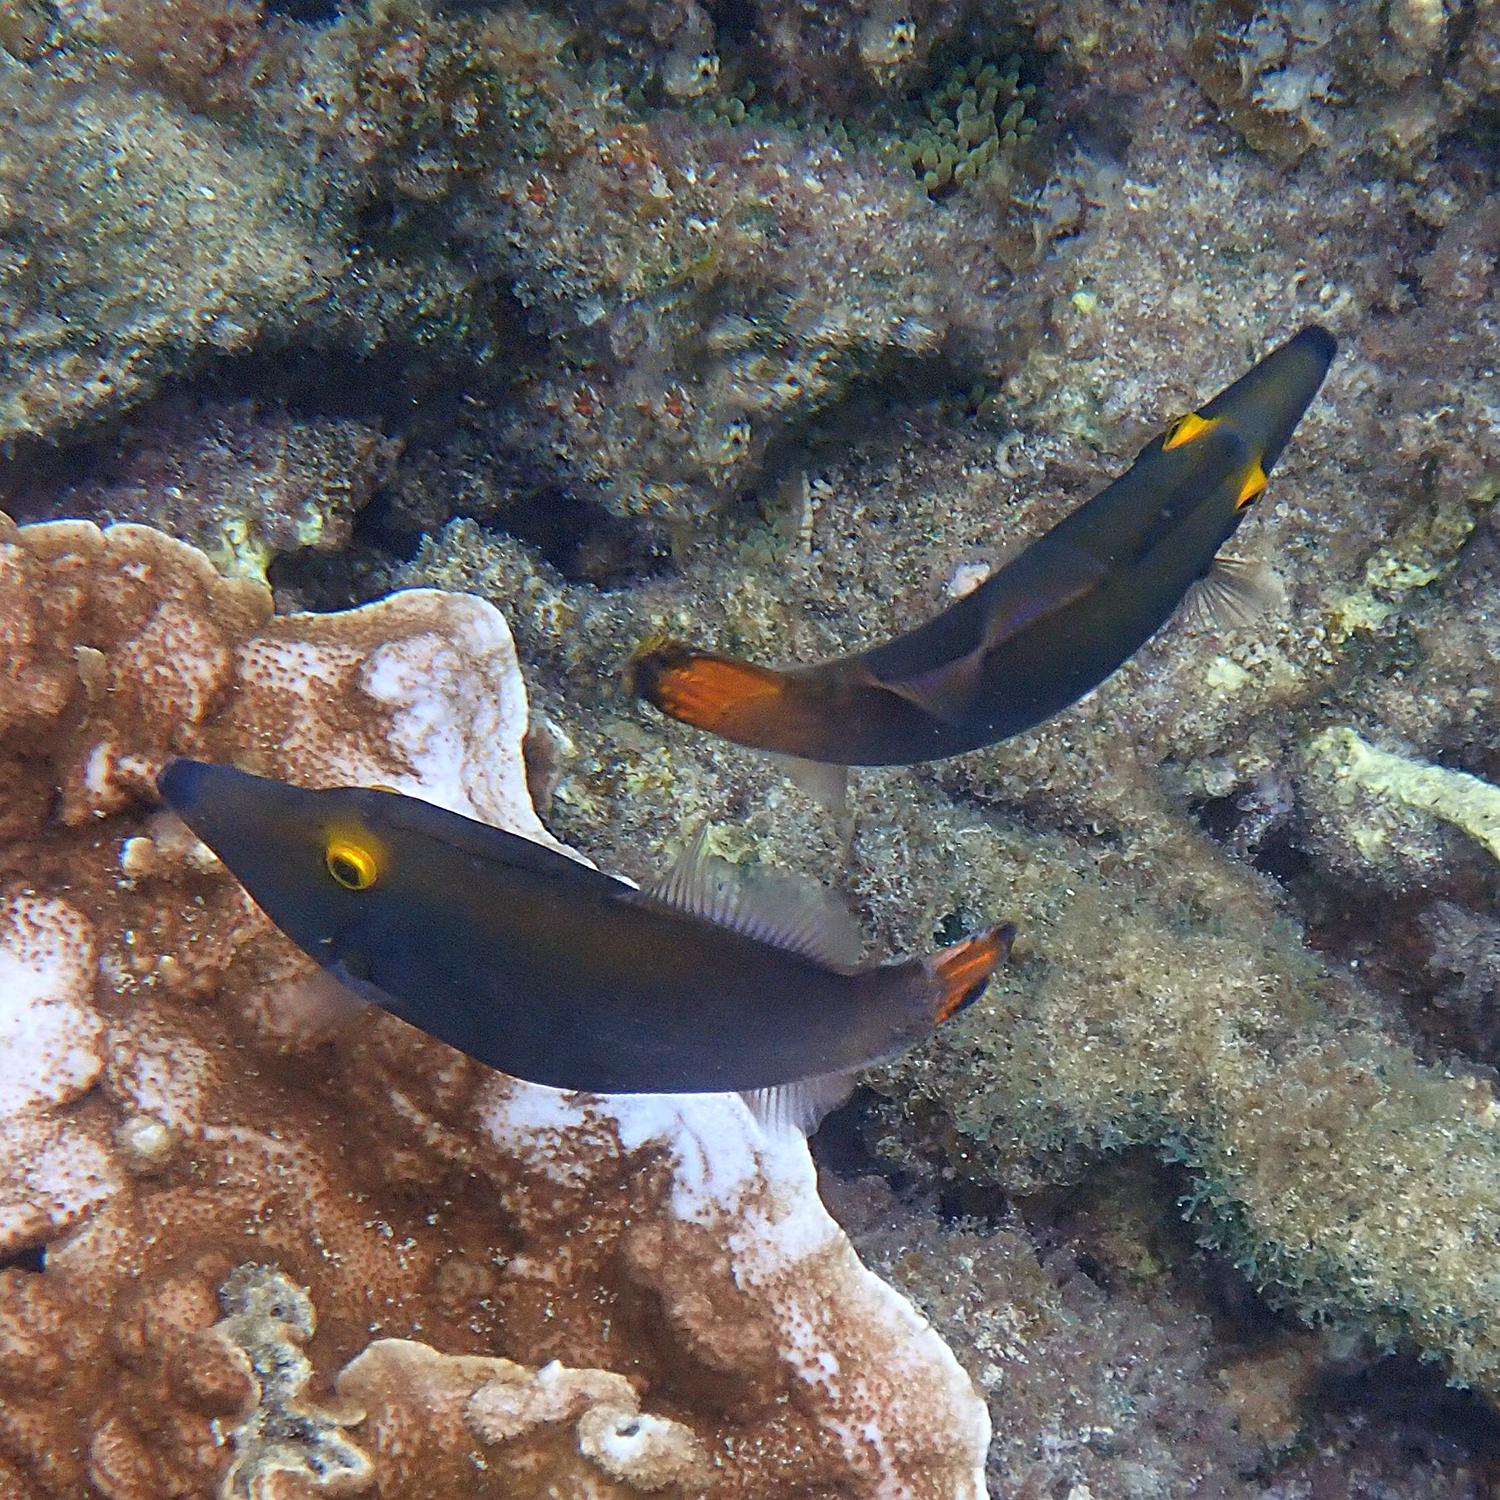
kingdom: Animalia
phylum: Chordata
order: Tetraodontiformes
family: Monacanthidae
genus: Pervagor
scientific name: Pervagor alternans
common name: Yelloweye filefish
